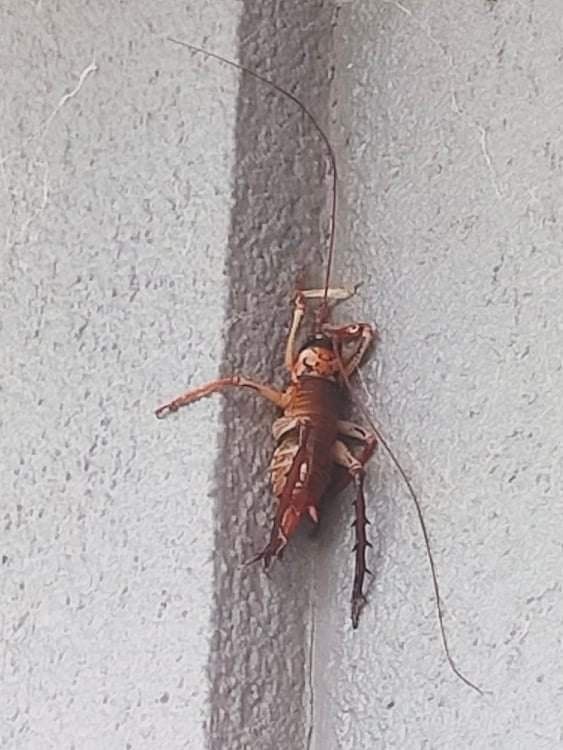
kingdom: Animalia
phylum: Arthropoda
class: Insecta
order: Orthoptera
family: Anostostomatidae
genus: Hemideina
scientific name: Hemideina thoracica
